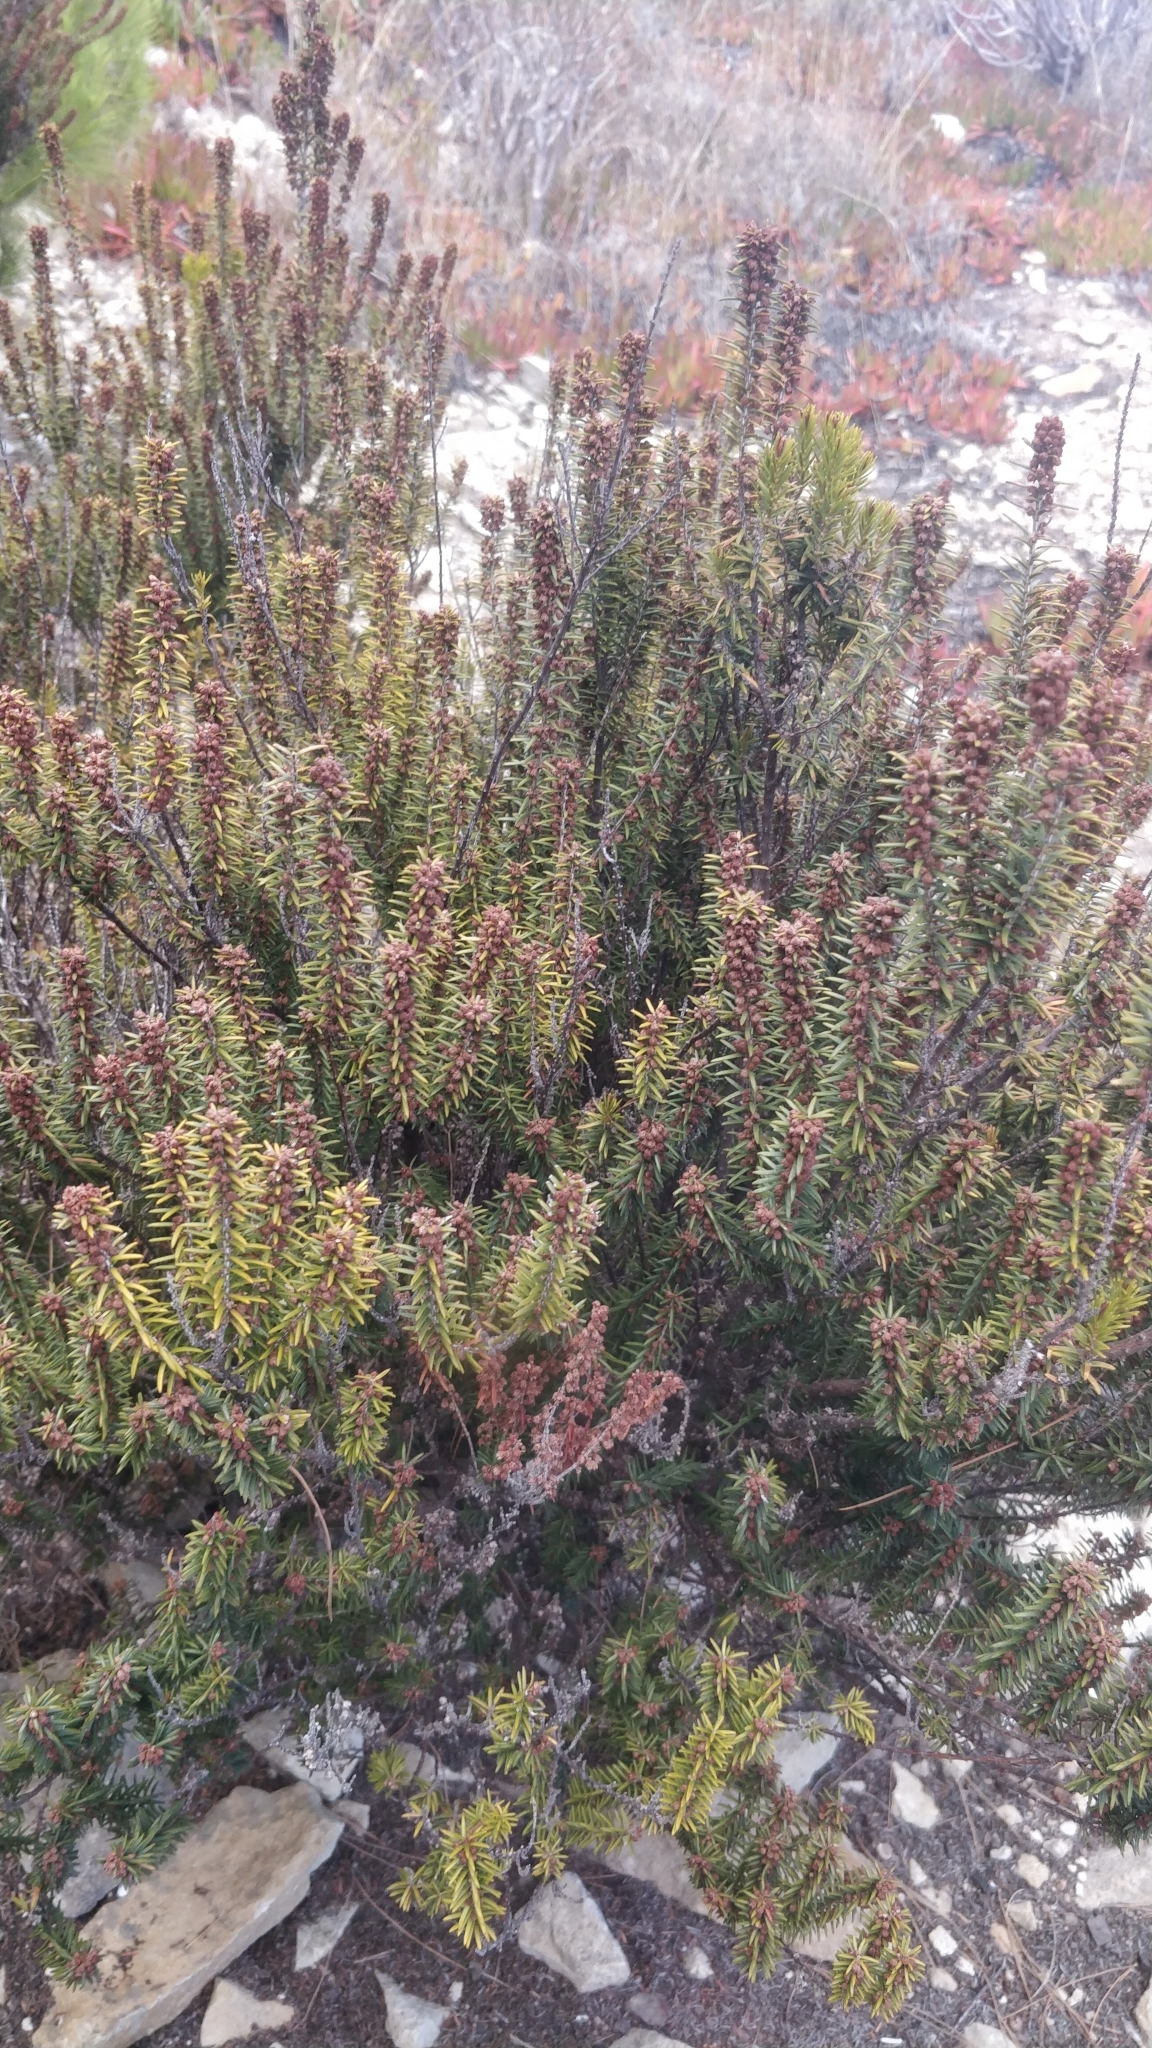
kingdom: Plantae
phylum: Tracheophyta
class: Magnoliopsida
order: Ericales
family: Ericaceae
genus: Erica
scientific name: Erica platycodon
